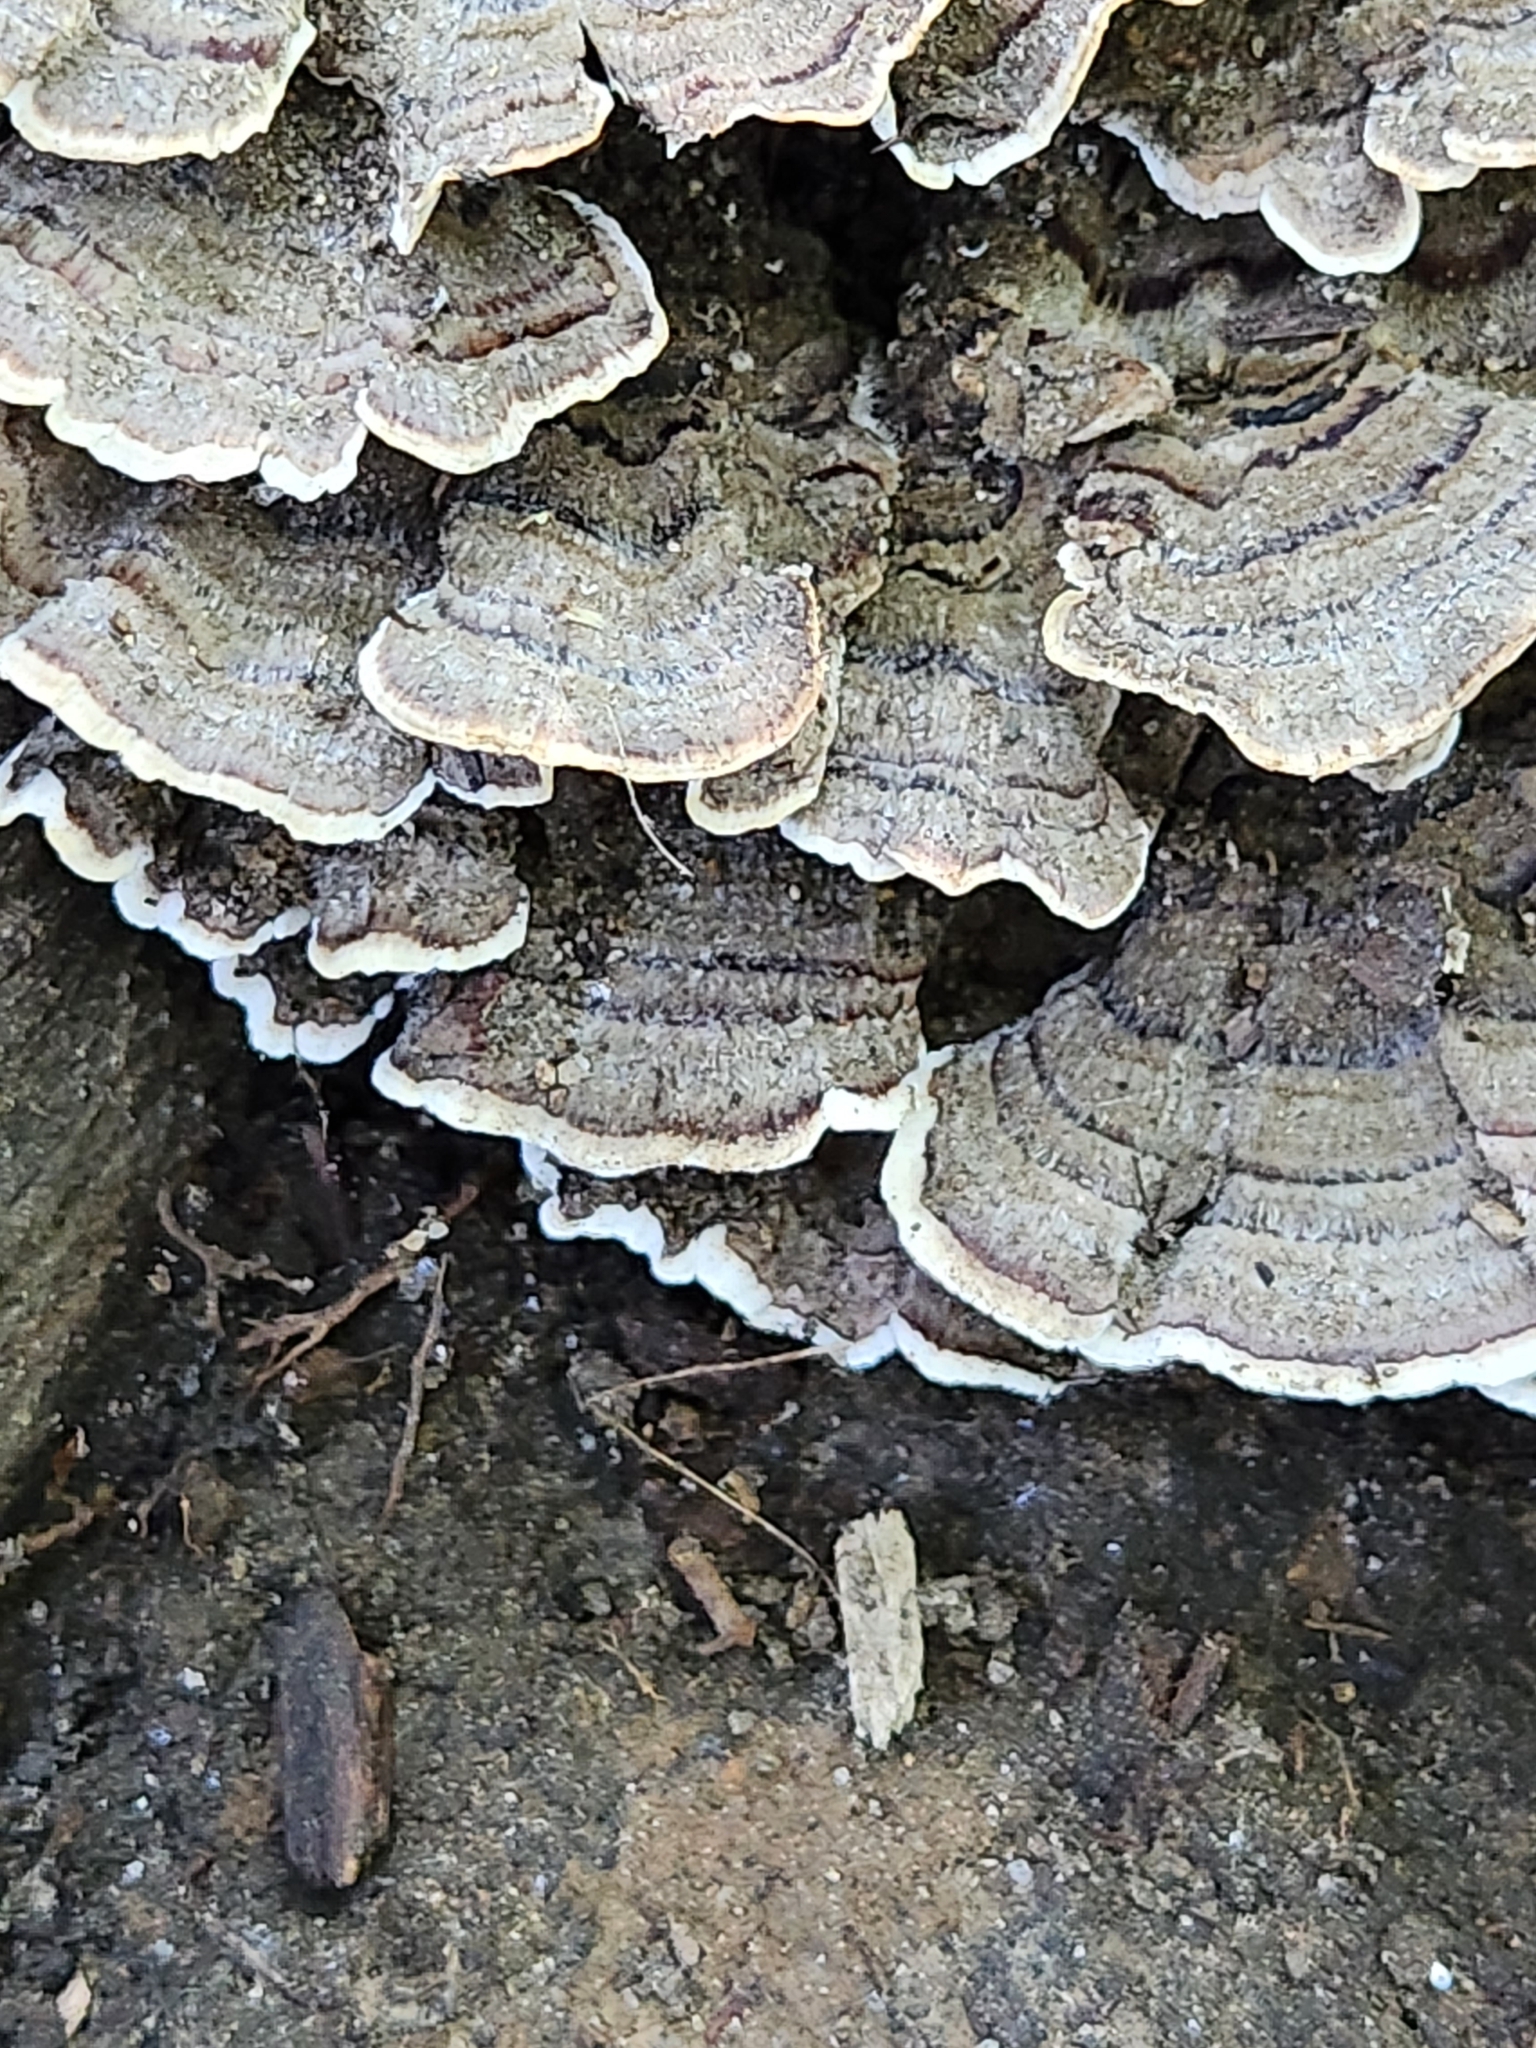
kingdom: Fungi
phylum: Basidiomycota
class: Agaricomycetes
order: Polyporales
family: Polyporaceae
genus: Trametes
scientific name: Trametes versicolor
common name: Turkeytail
